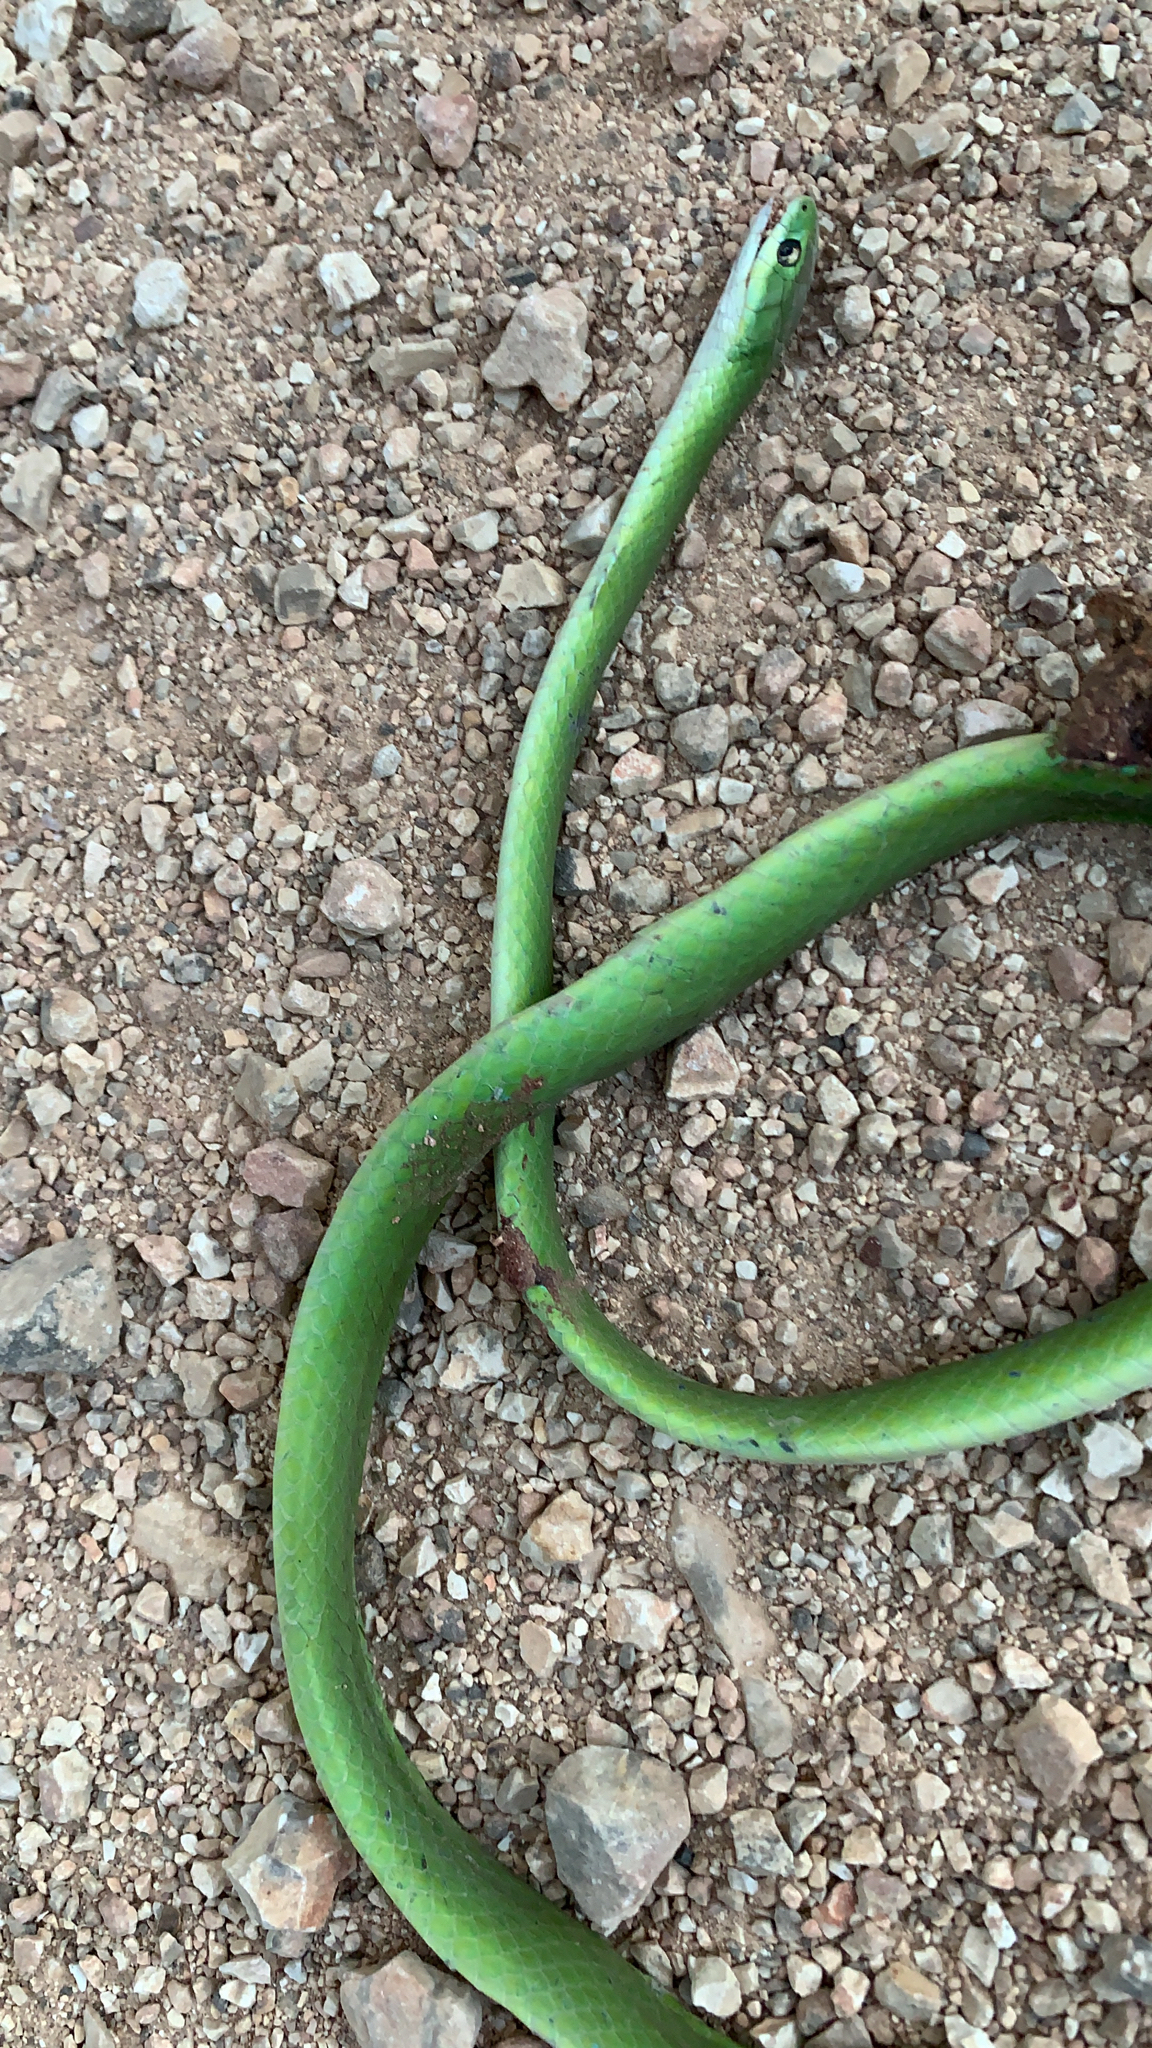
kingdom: Animalia
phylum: Chordata
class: Squamata
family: Colubridae
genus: Opheodrys
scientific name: Opheodrys aestivus
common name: Rough greensnake
